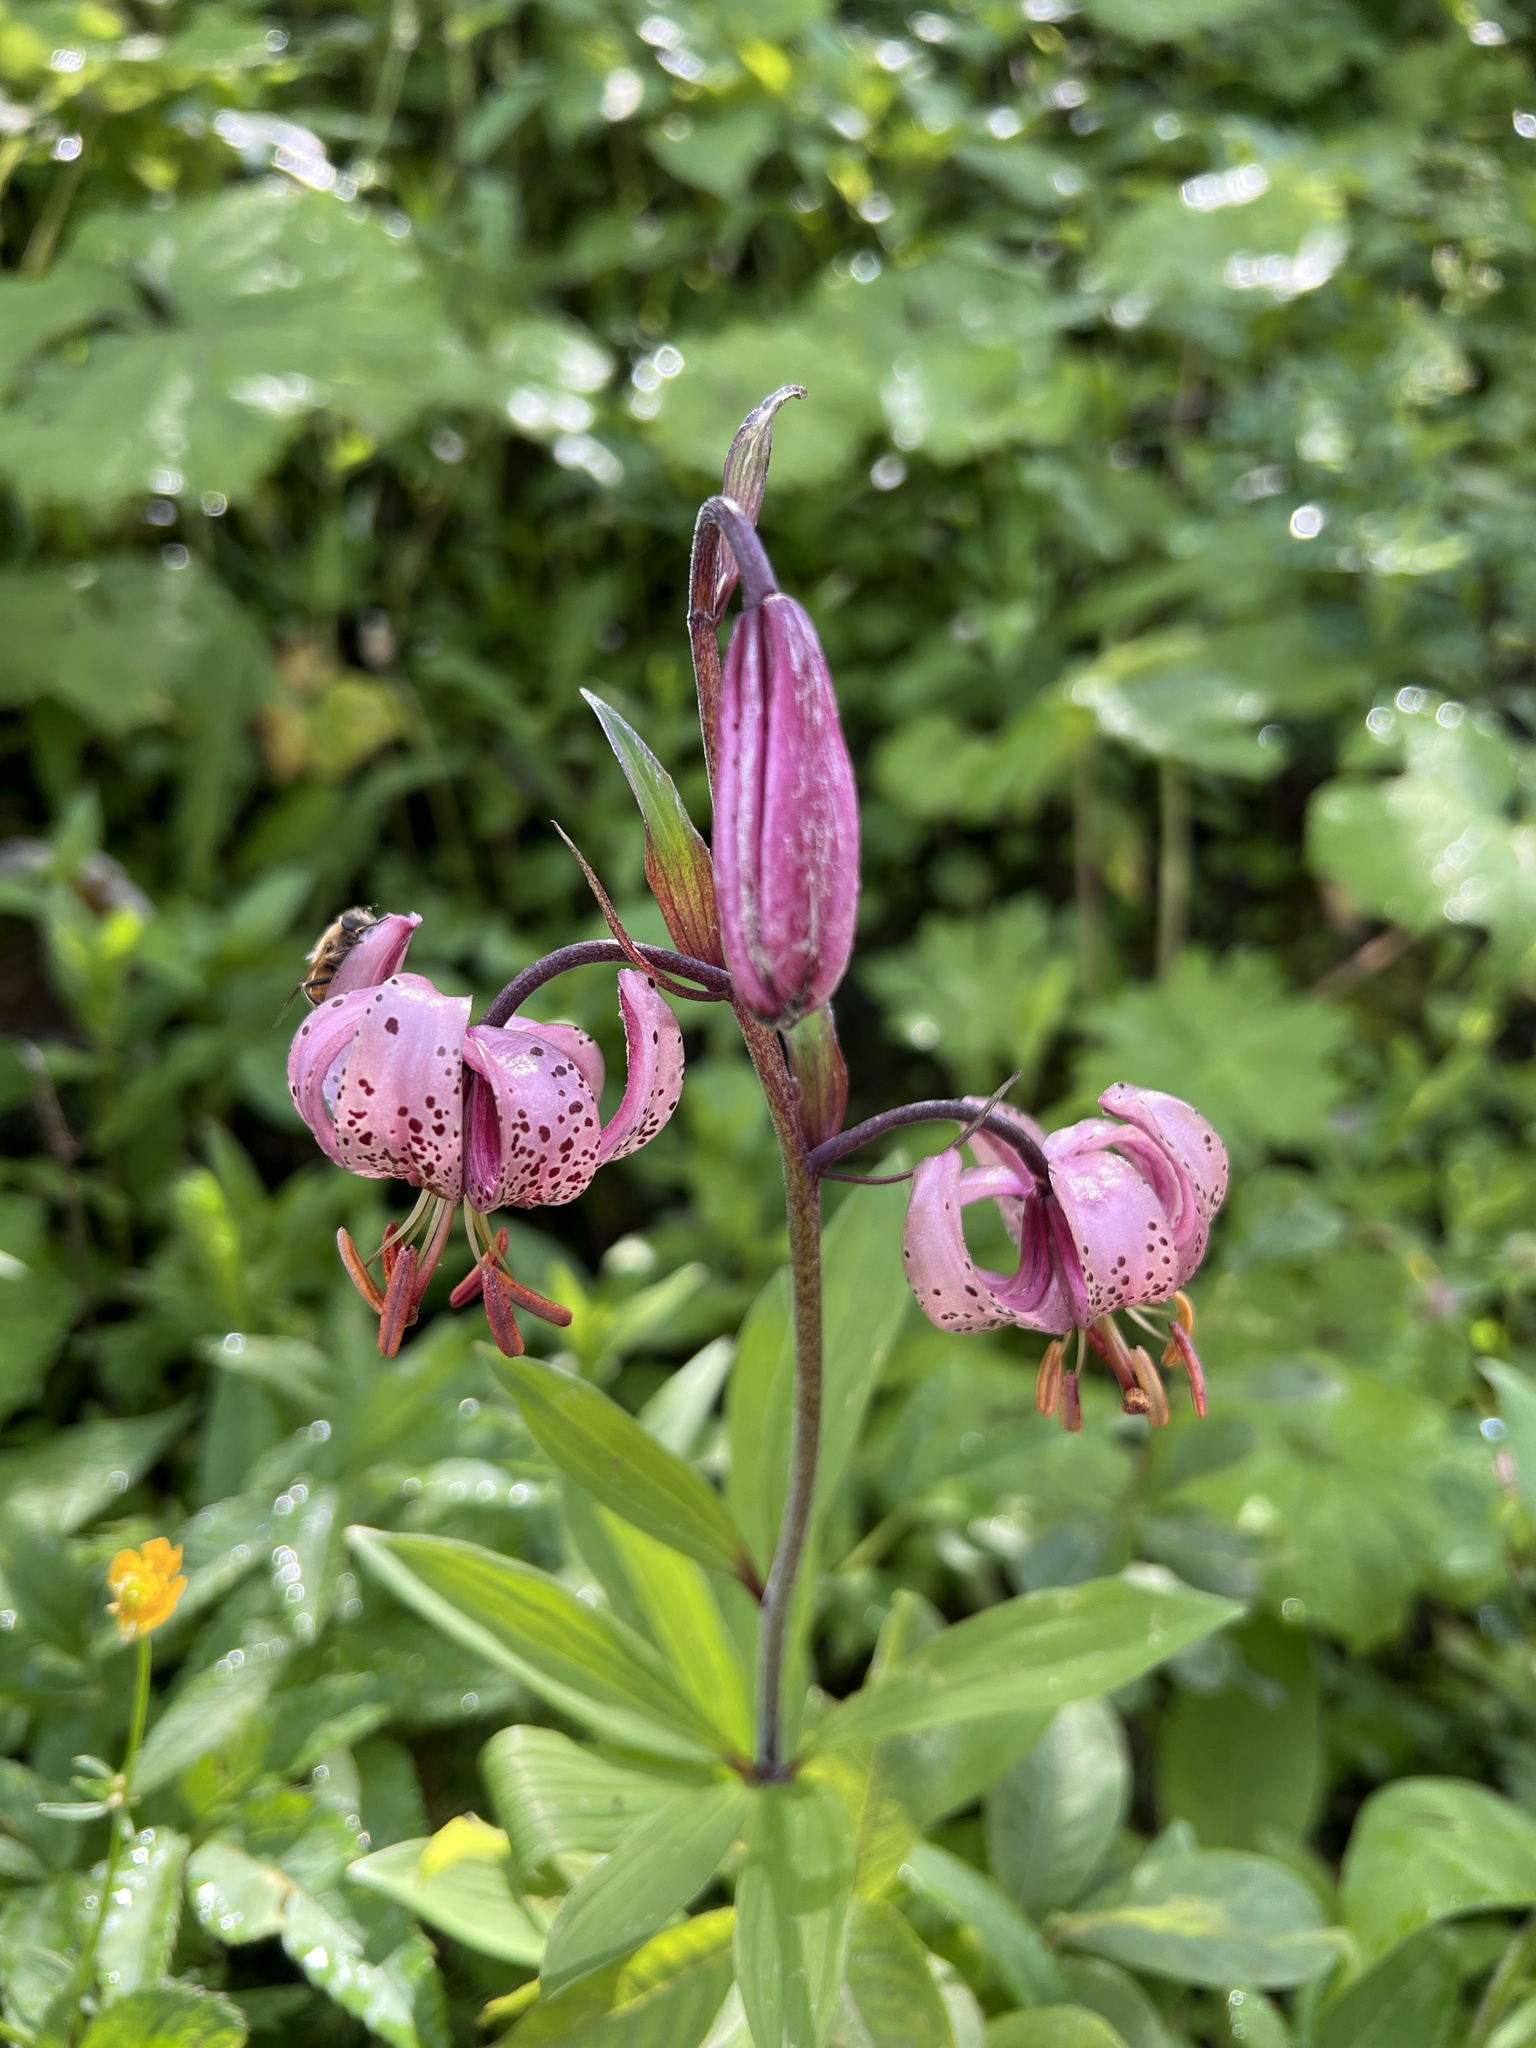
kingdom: Plantae
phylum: Tracheophyta
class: Liliopsida
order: Liliales
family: Liliaceae
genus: Lilium
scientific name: Lilium martagon
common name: Martagon lily
